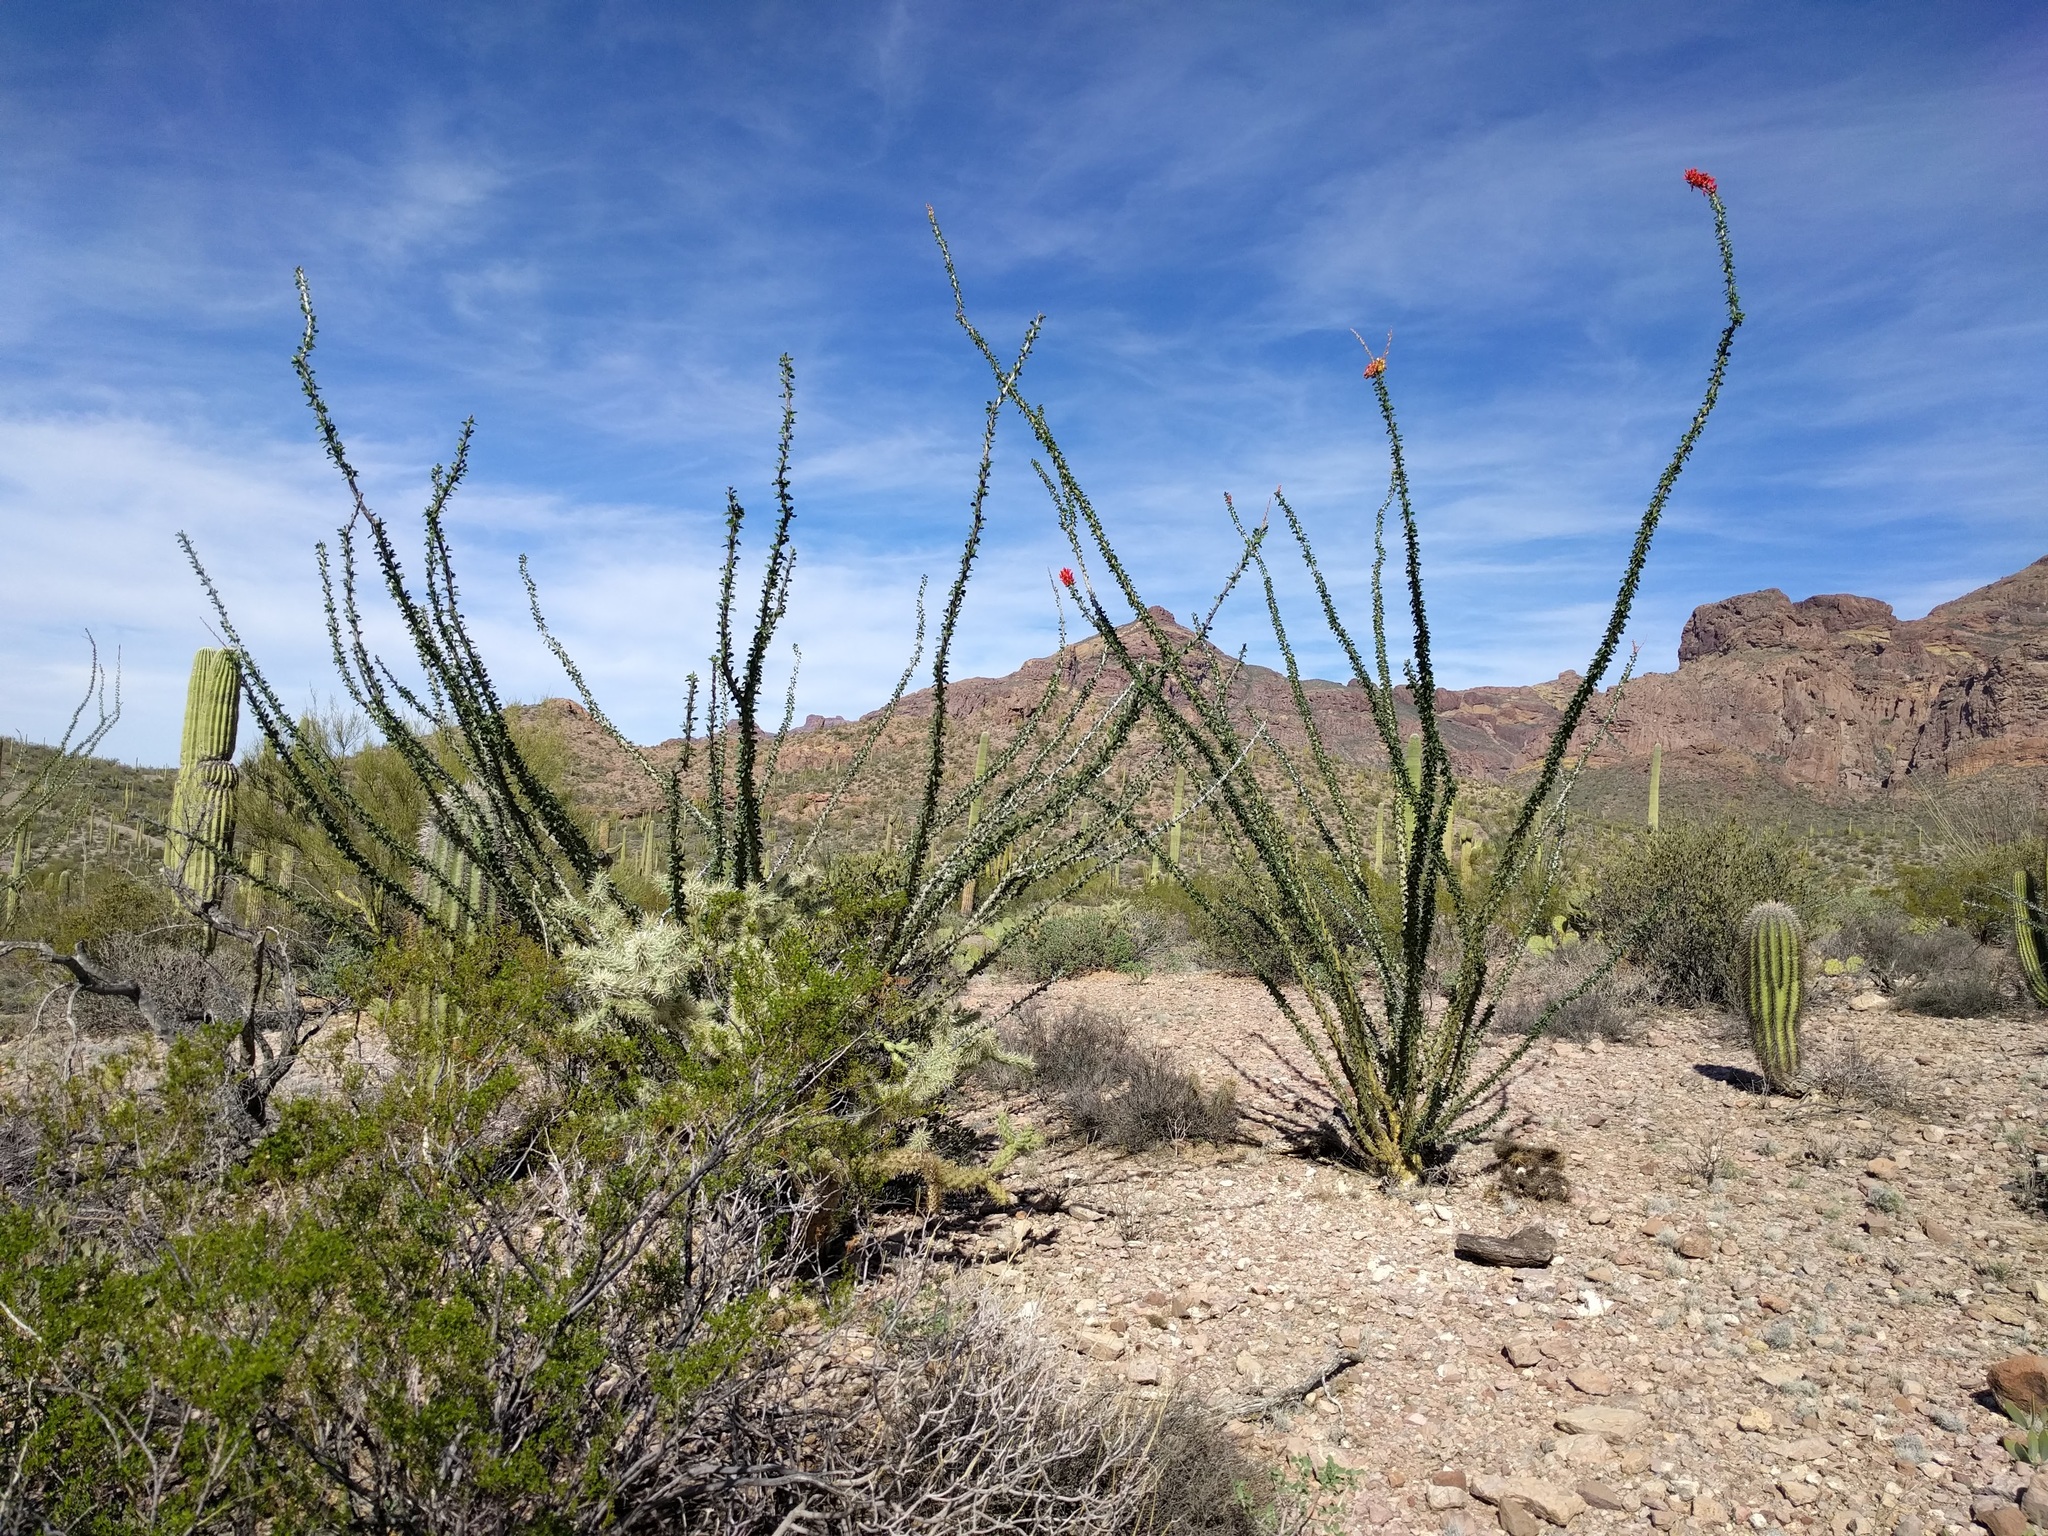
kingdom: Plantae
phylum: Tracheophyta
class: Magnoliopsida
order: Ericales
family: Fouquieriaceae
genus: Fouquieria
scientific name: Fouquieria splendens
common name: Vine-cactus
